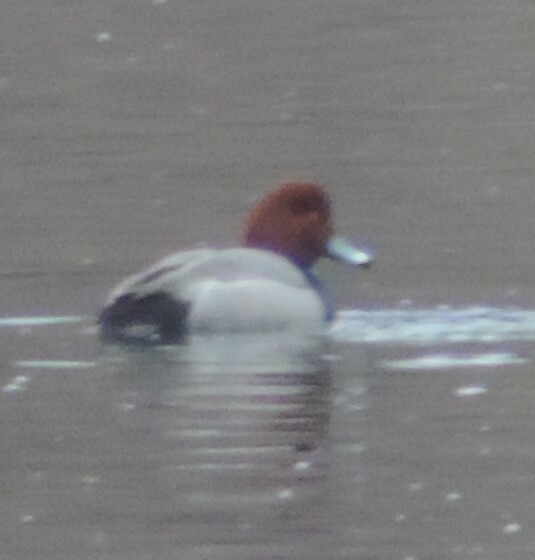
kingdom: Animalia
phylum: Chordata
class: Aves
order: Anseriformes
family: Anatidae
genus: Aythya
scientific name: Aythya americana
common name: Redhead
